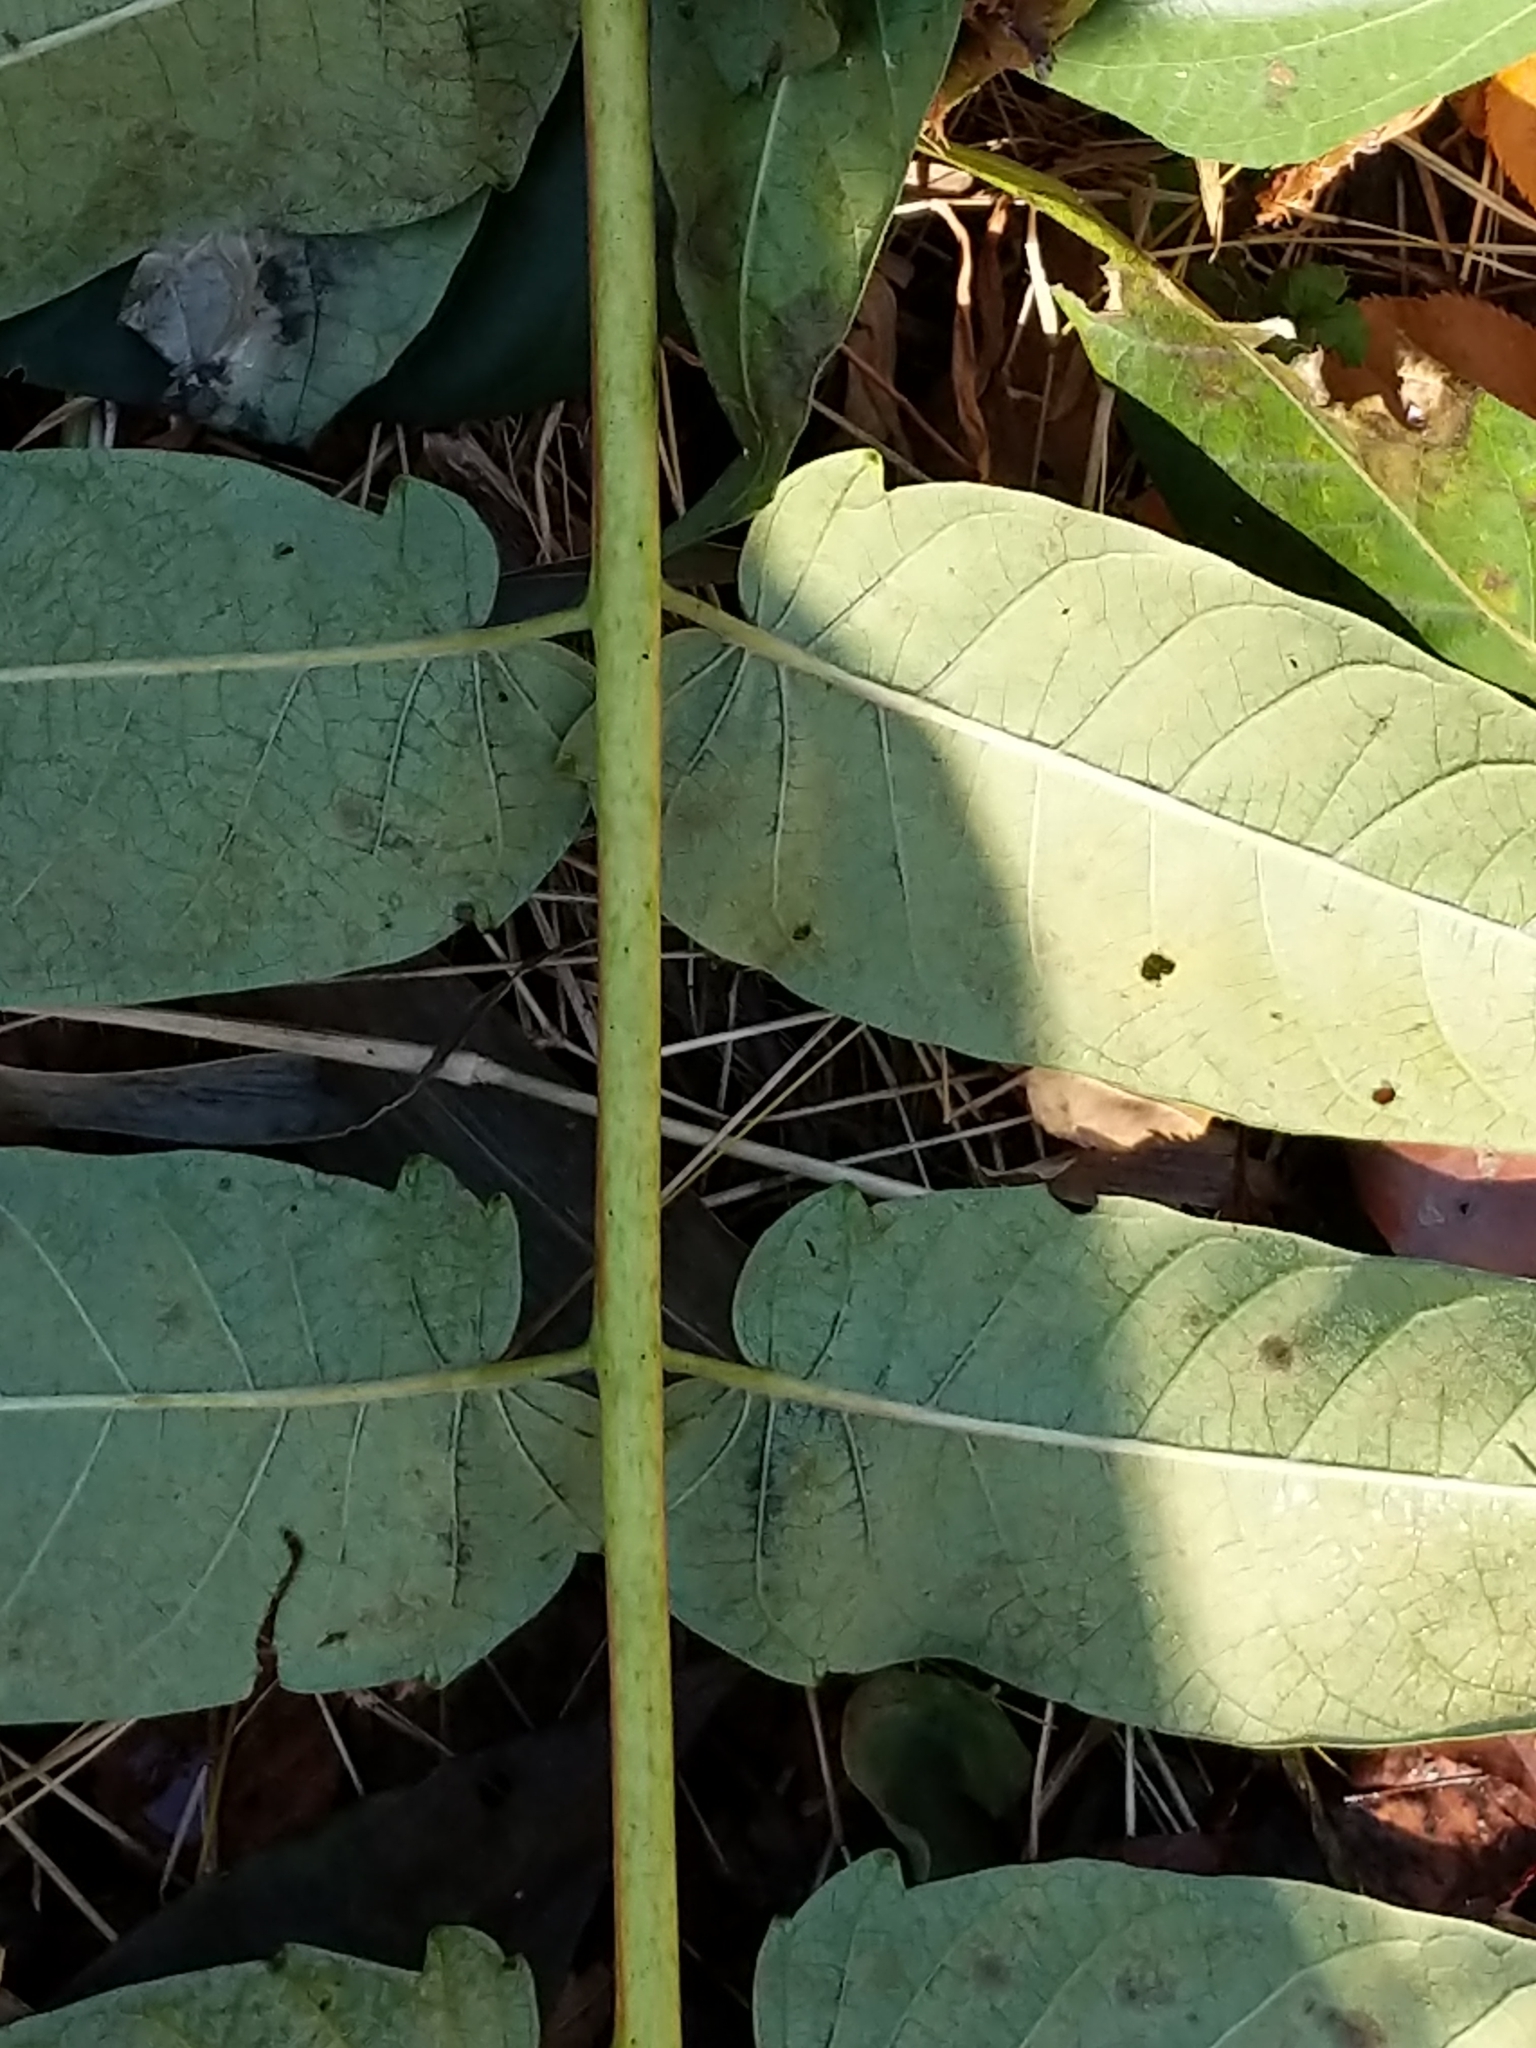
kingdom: Plantae
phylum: Tracheophyta
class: Magnoliopsida
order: Sapindales
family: Simaroubaceae
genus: Ailanthus
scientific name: Ailanthus altissima
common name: Tree-of-heaven
